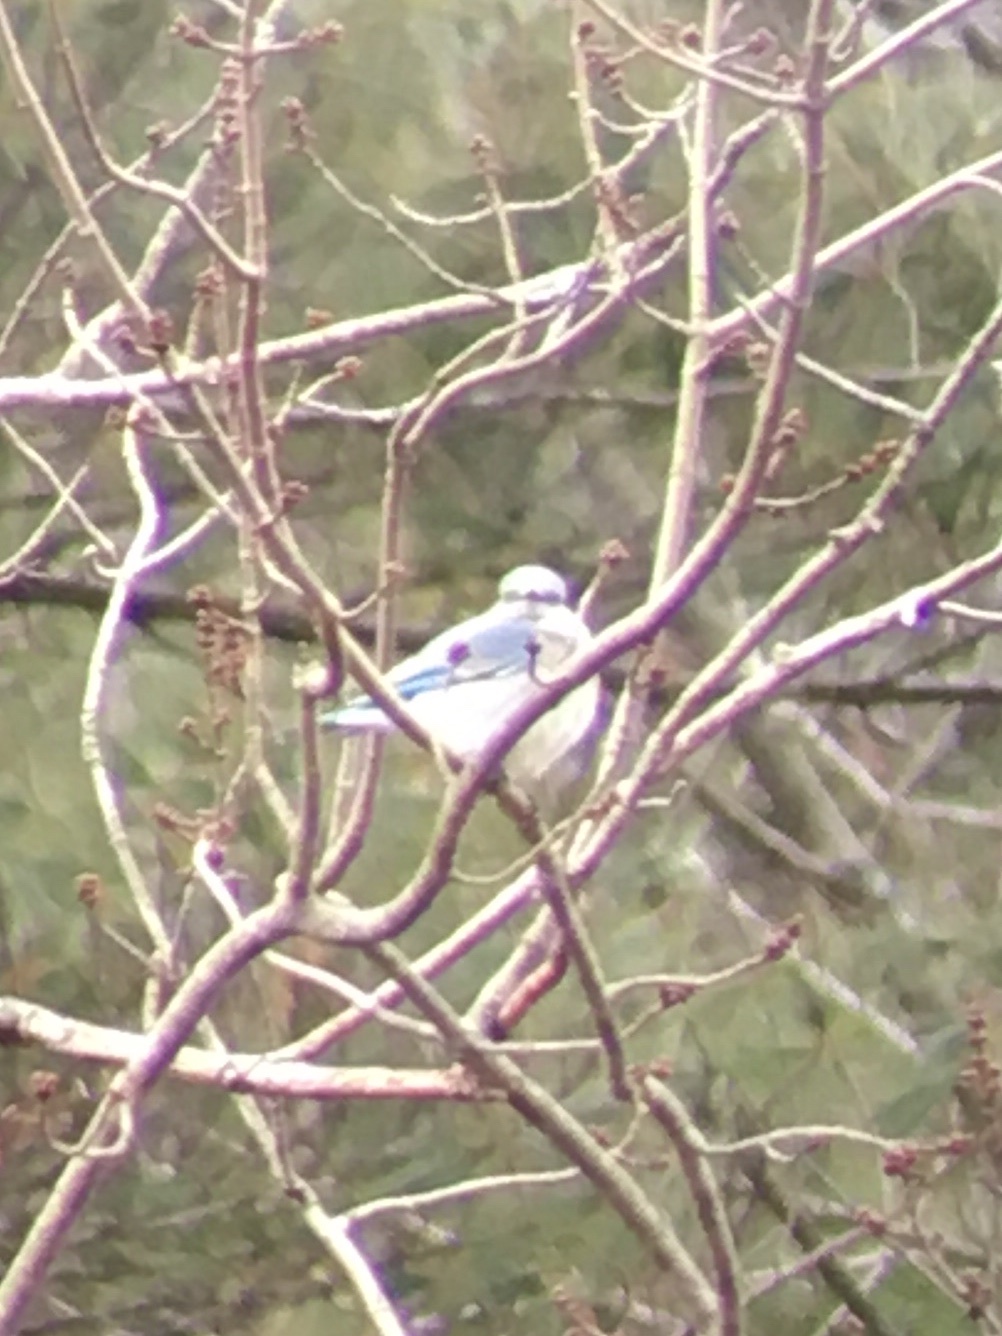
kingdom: Animalia
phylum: Chordata
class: Aves
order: Passeriformes
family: Turdidae
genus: Sialia
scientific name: Sialia currucoides
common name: Mountain bluebird
